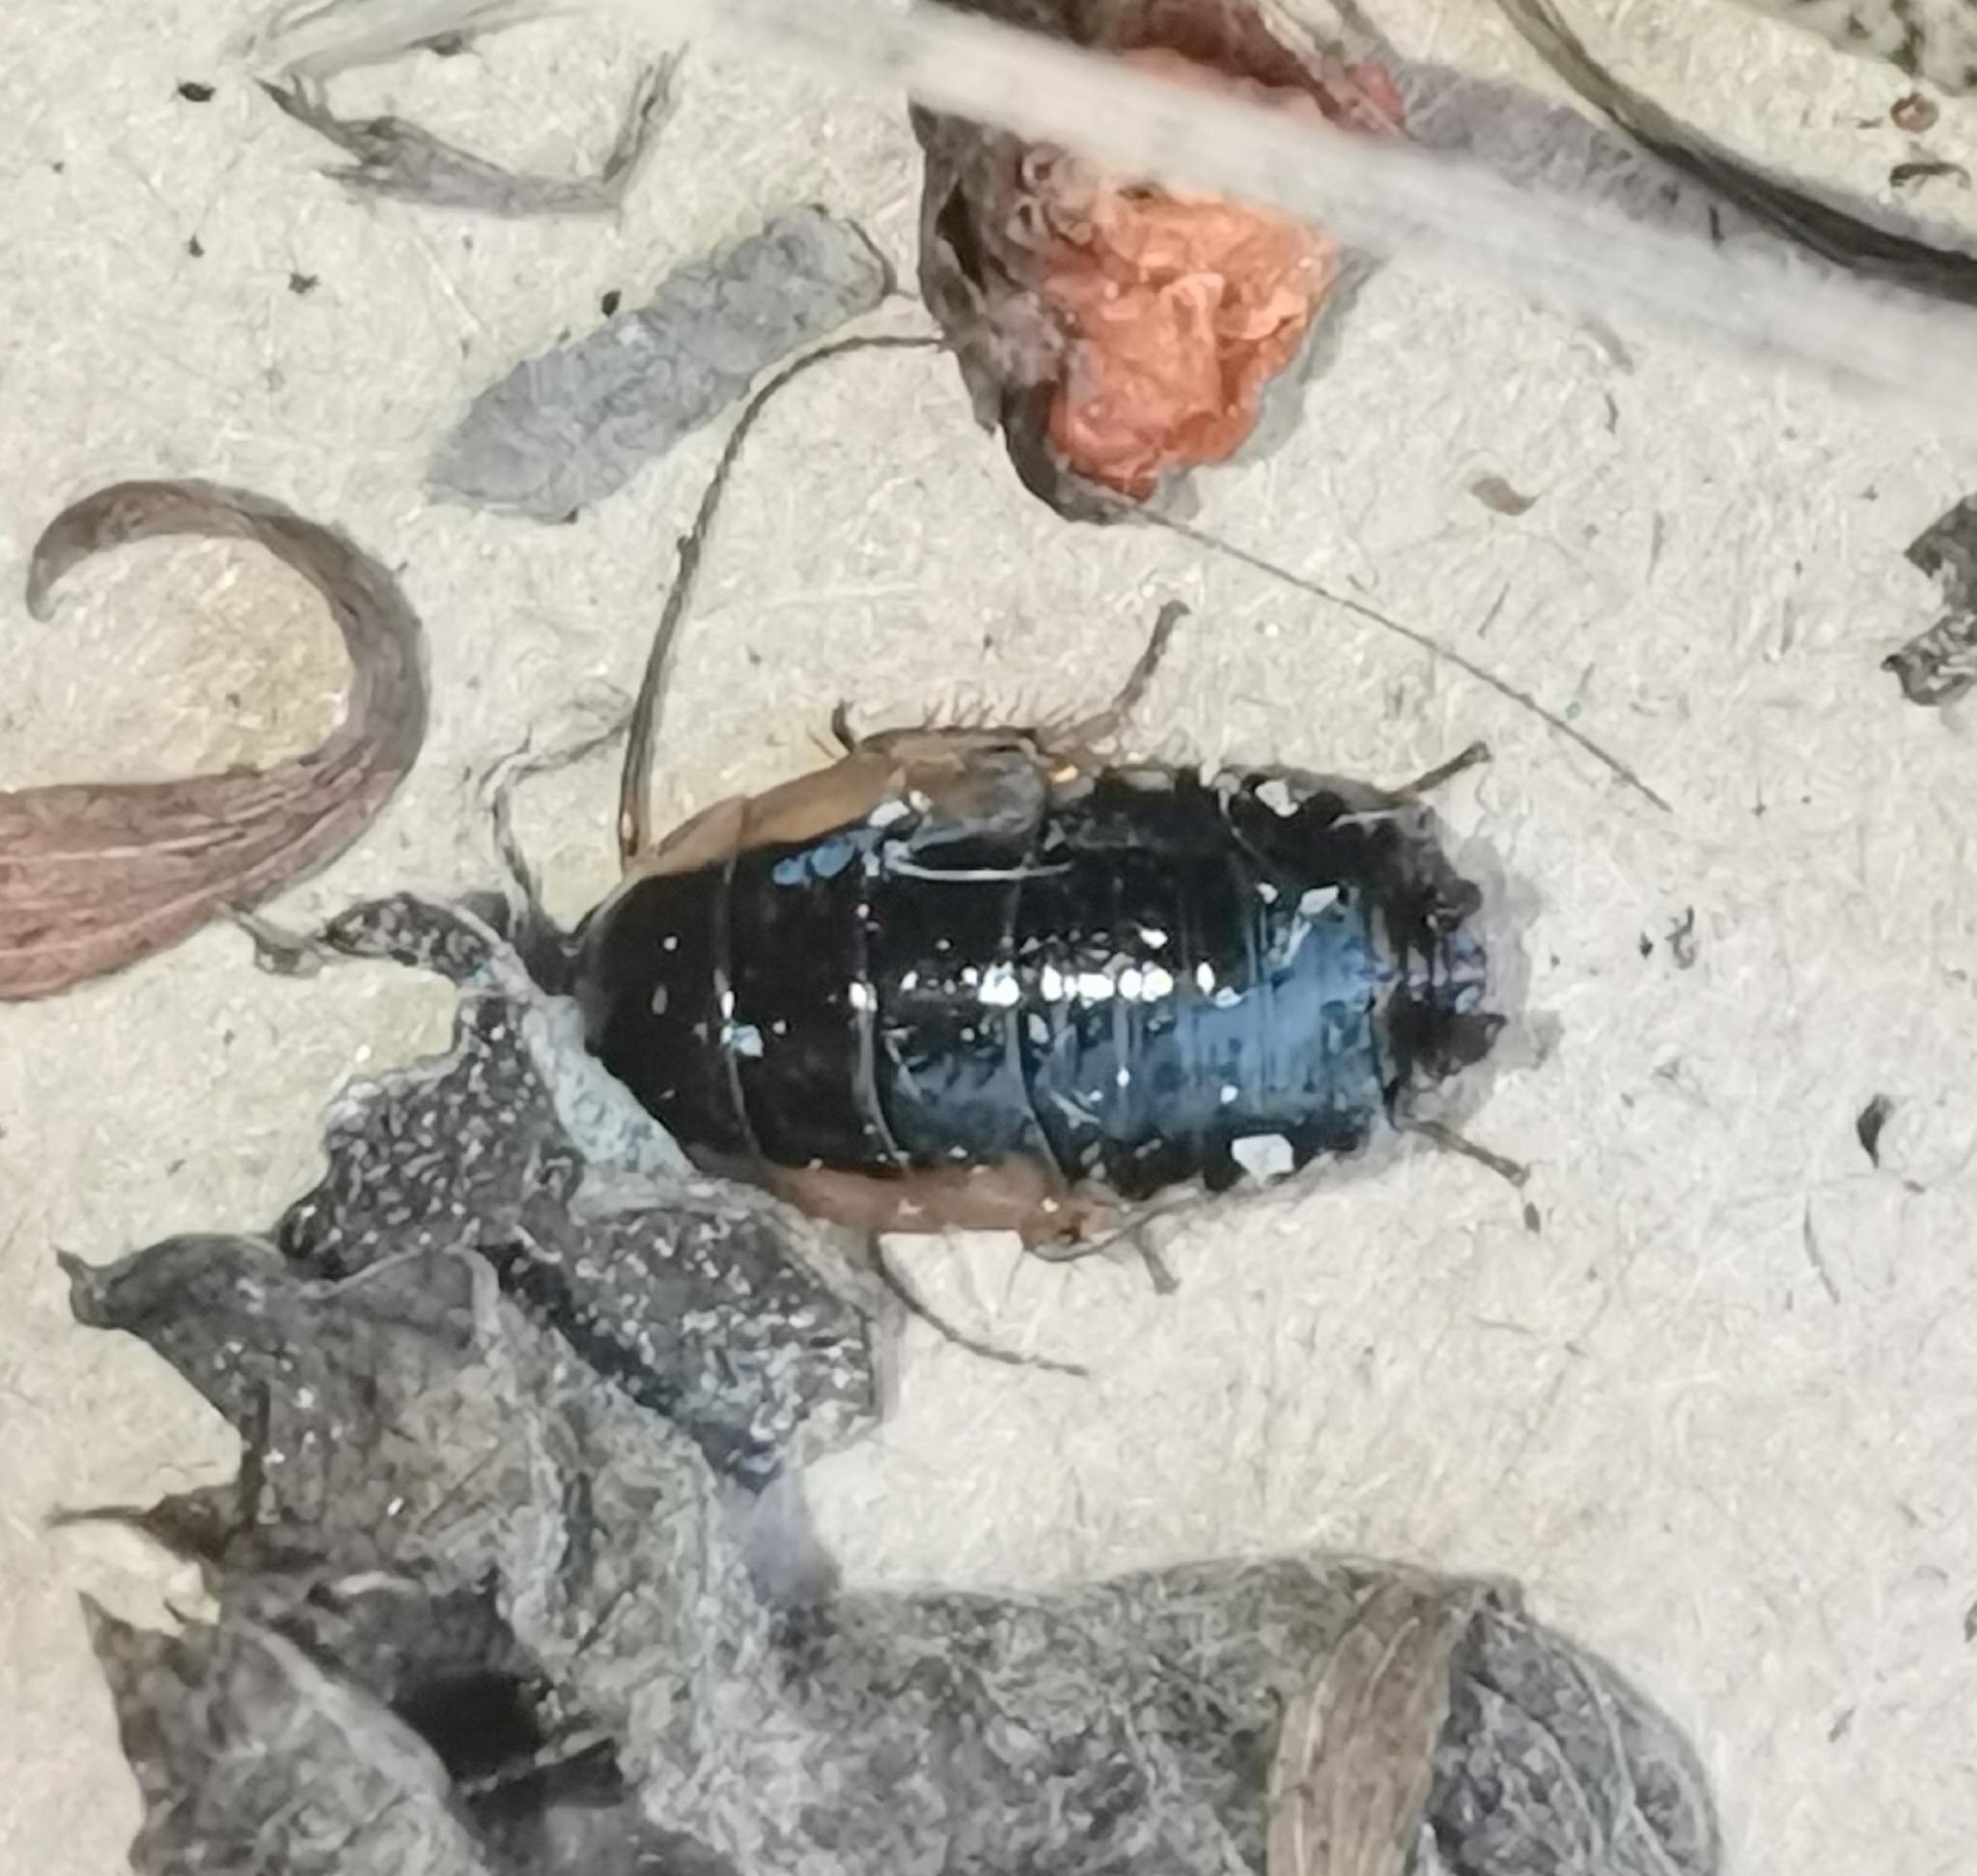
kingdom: Animalia
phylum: Arthropoda
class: Insecta
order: Blattodea
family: Ectobiidae
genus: Ectobius
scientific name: Ectobius sylvestris
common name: Forest cockroach
